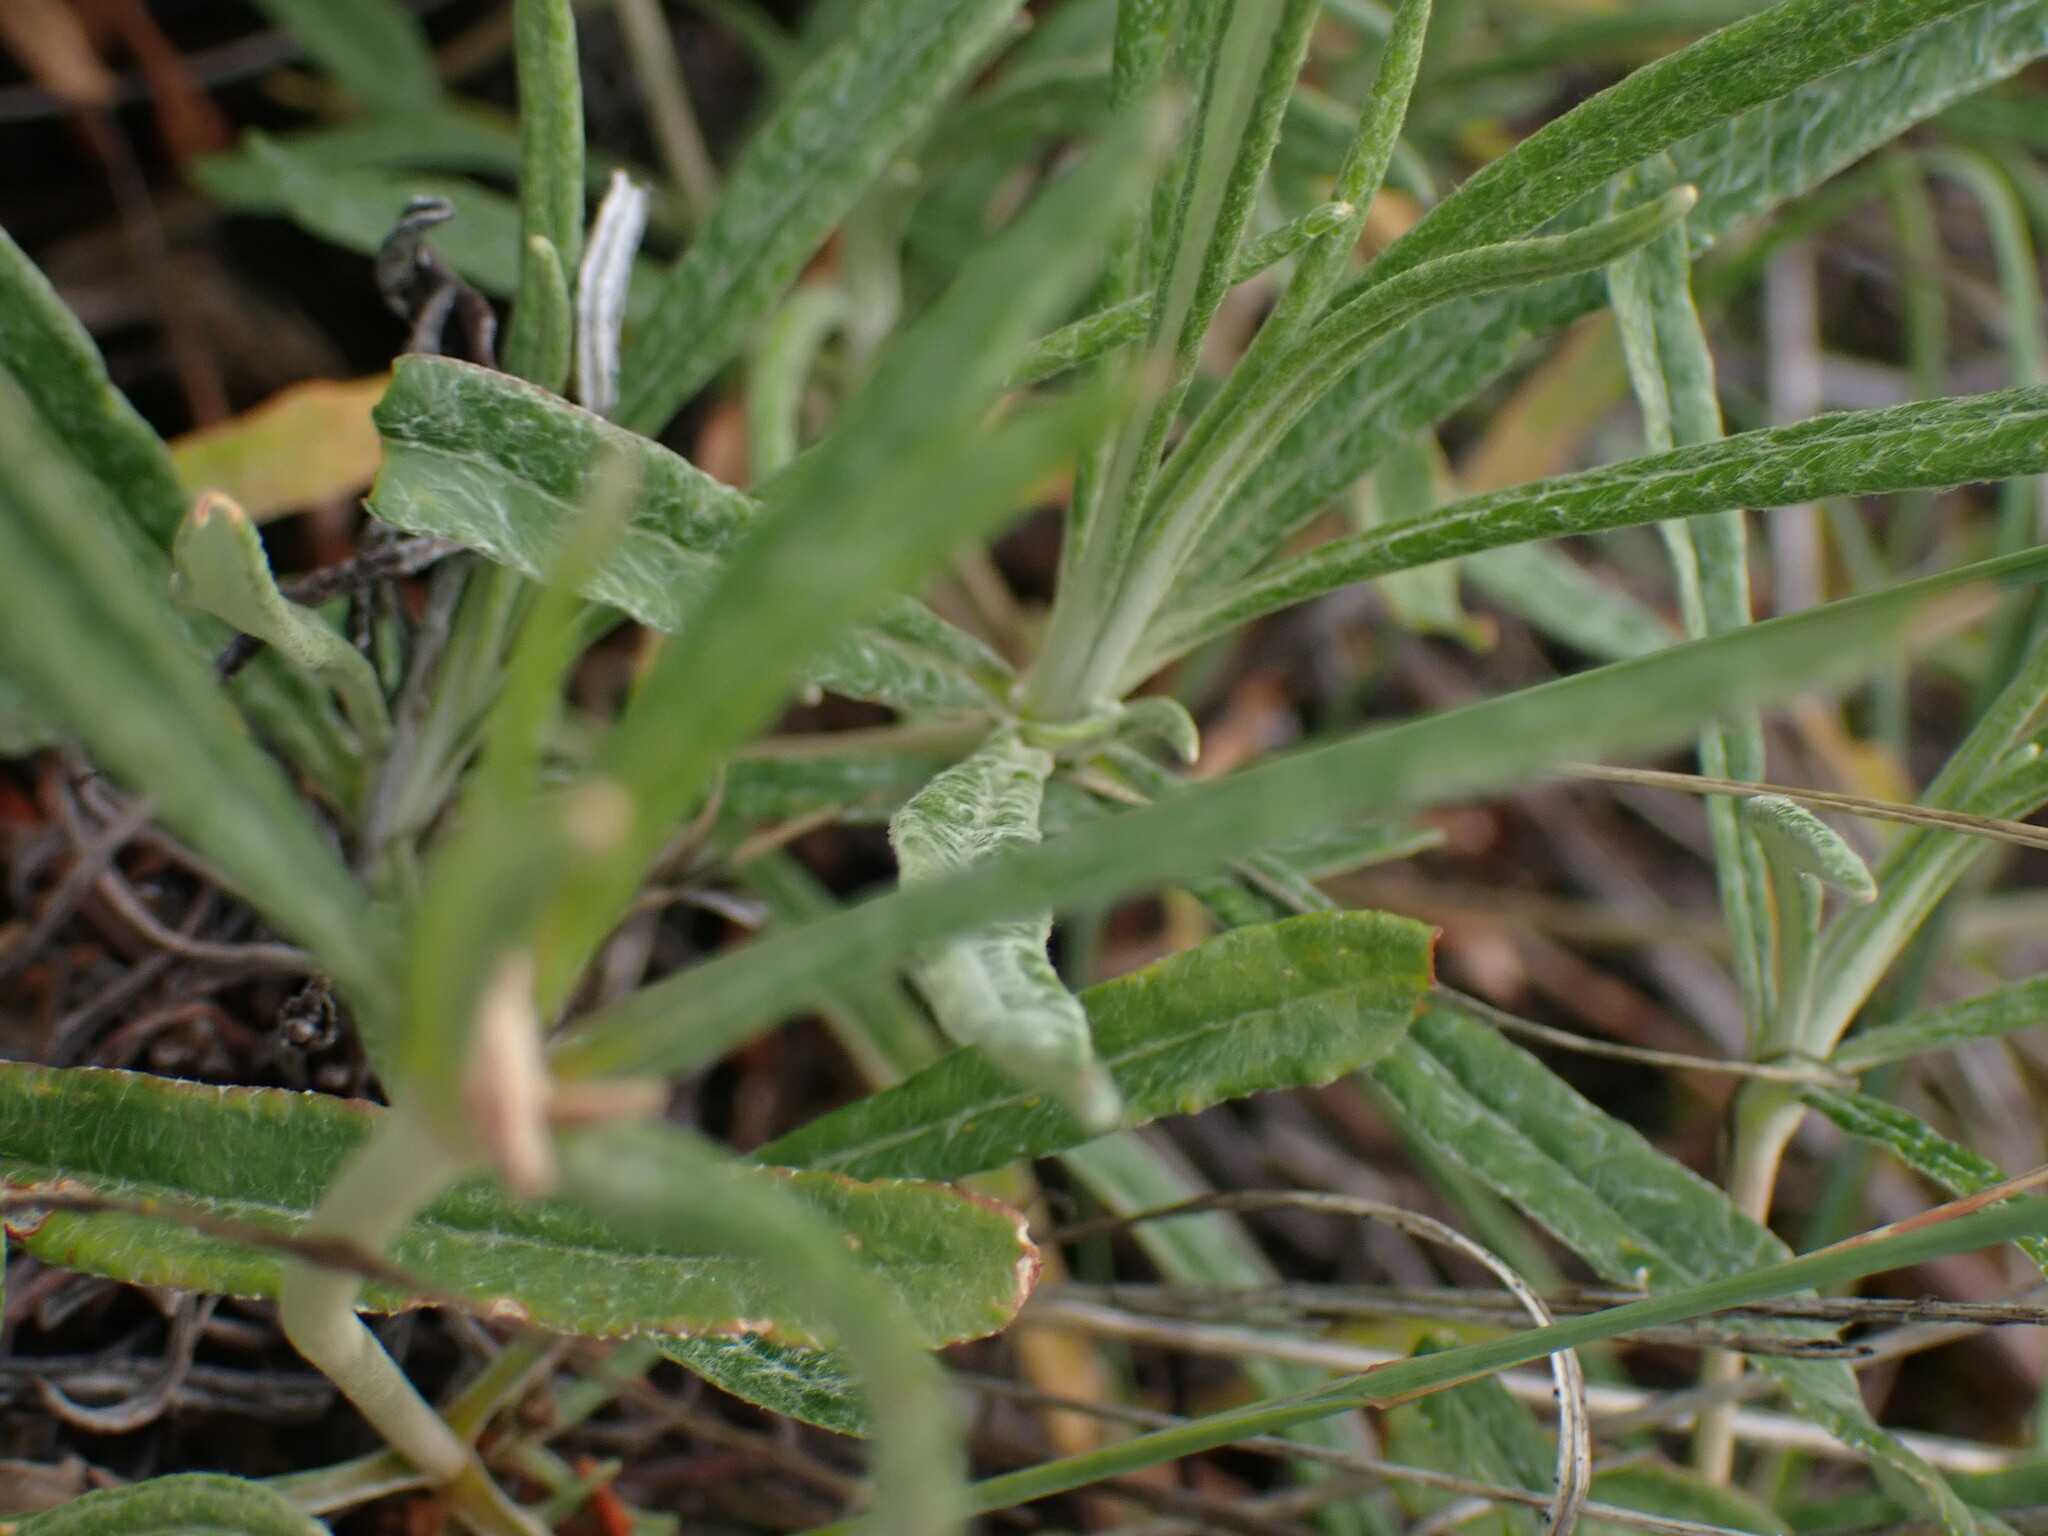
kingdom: Plantae
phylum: Tracheophyta
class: Magnoliopsida
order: Caryophyllales
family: Polygonaceae
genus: Eriogonum
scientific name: Eriogonum heracleoides
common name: Wyeth's buckwheat
